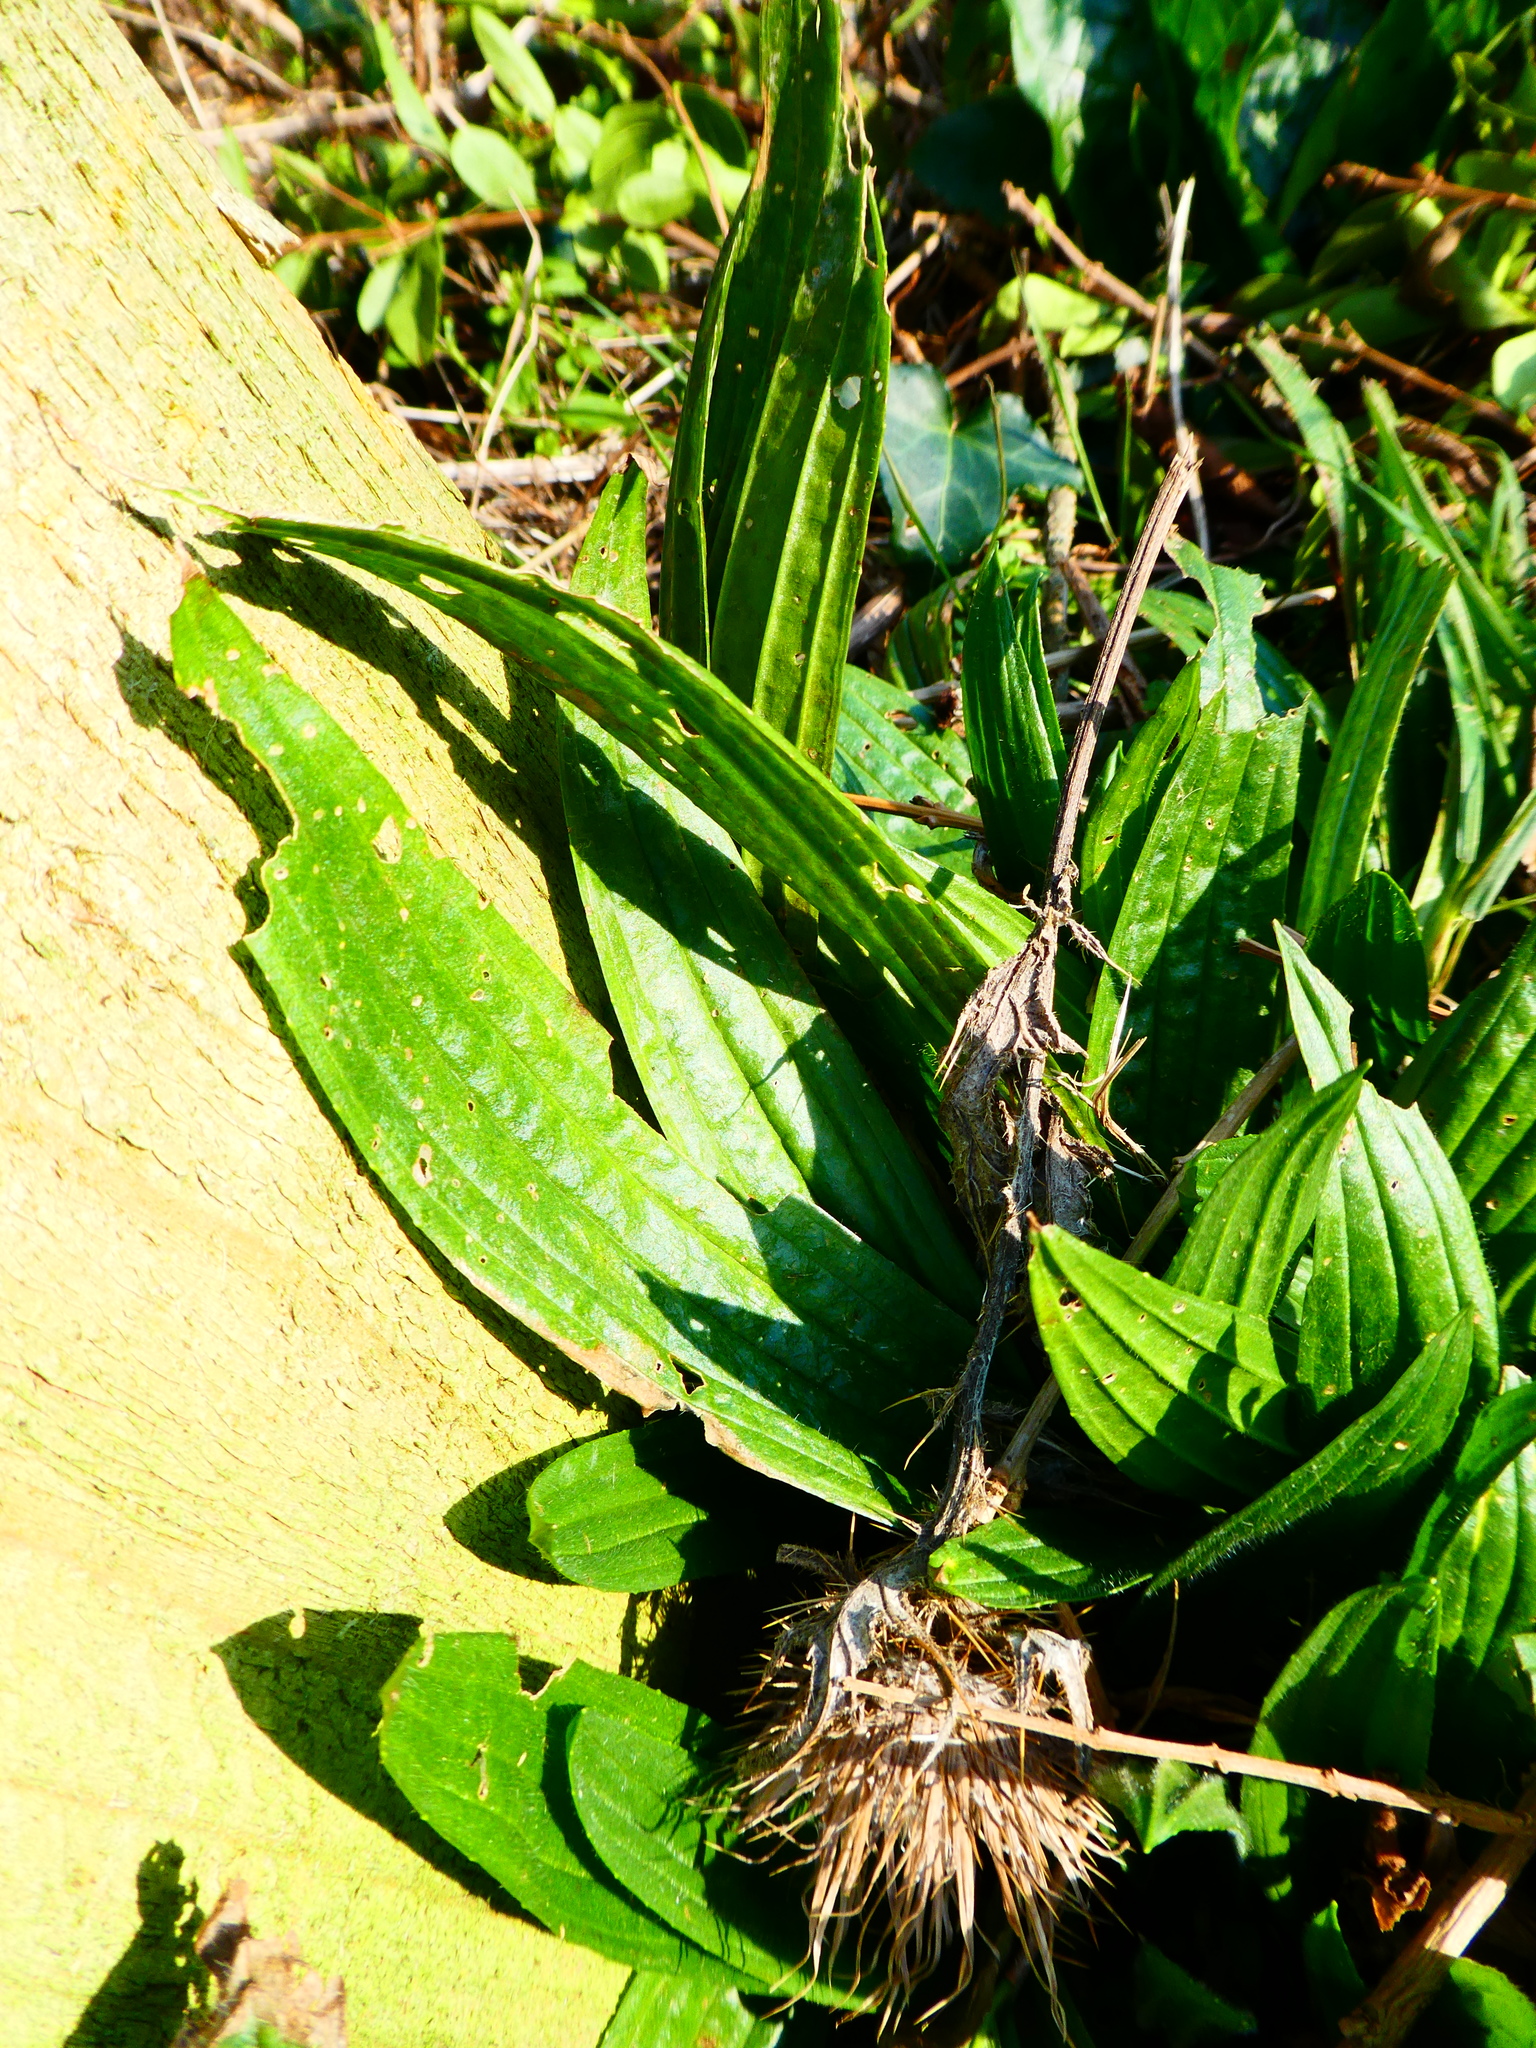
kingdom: Plantae
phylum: Tracheophyta
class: Magnoliopsida
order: Lamiales
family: Plantaginaceae
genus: Plantago
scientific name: Plantago lanceolata
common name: Ribwort plantain
